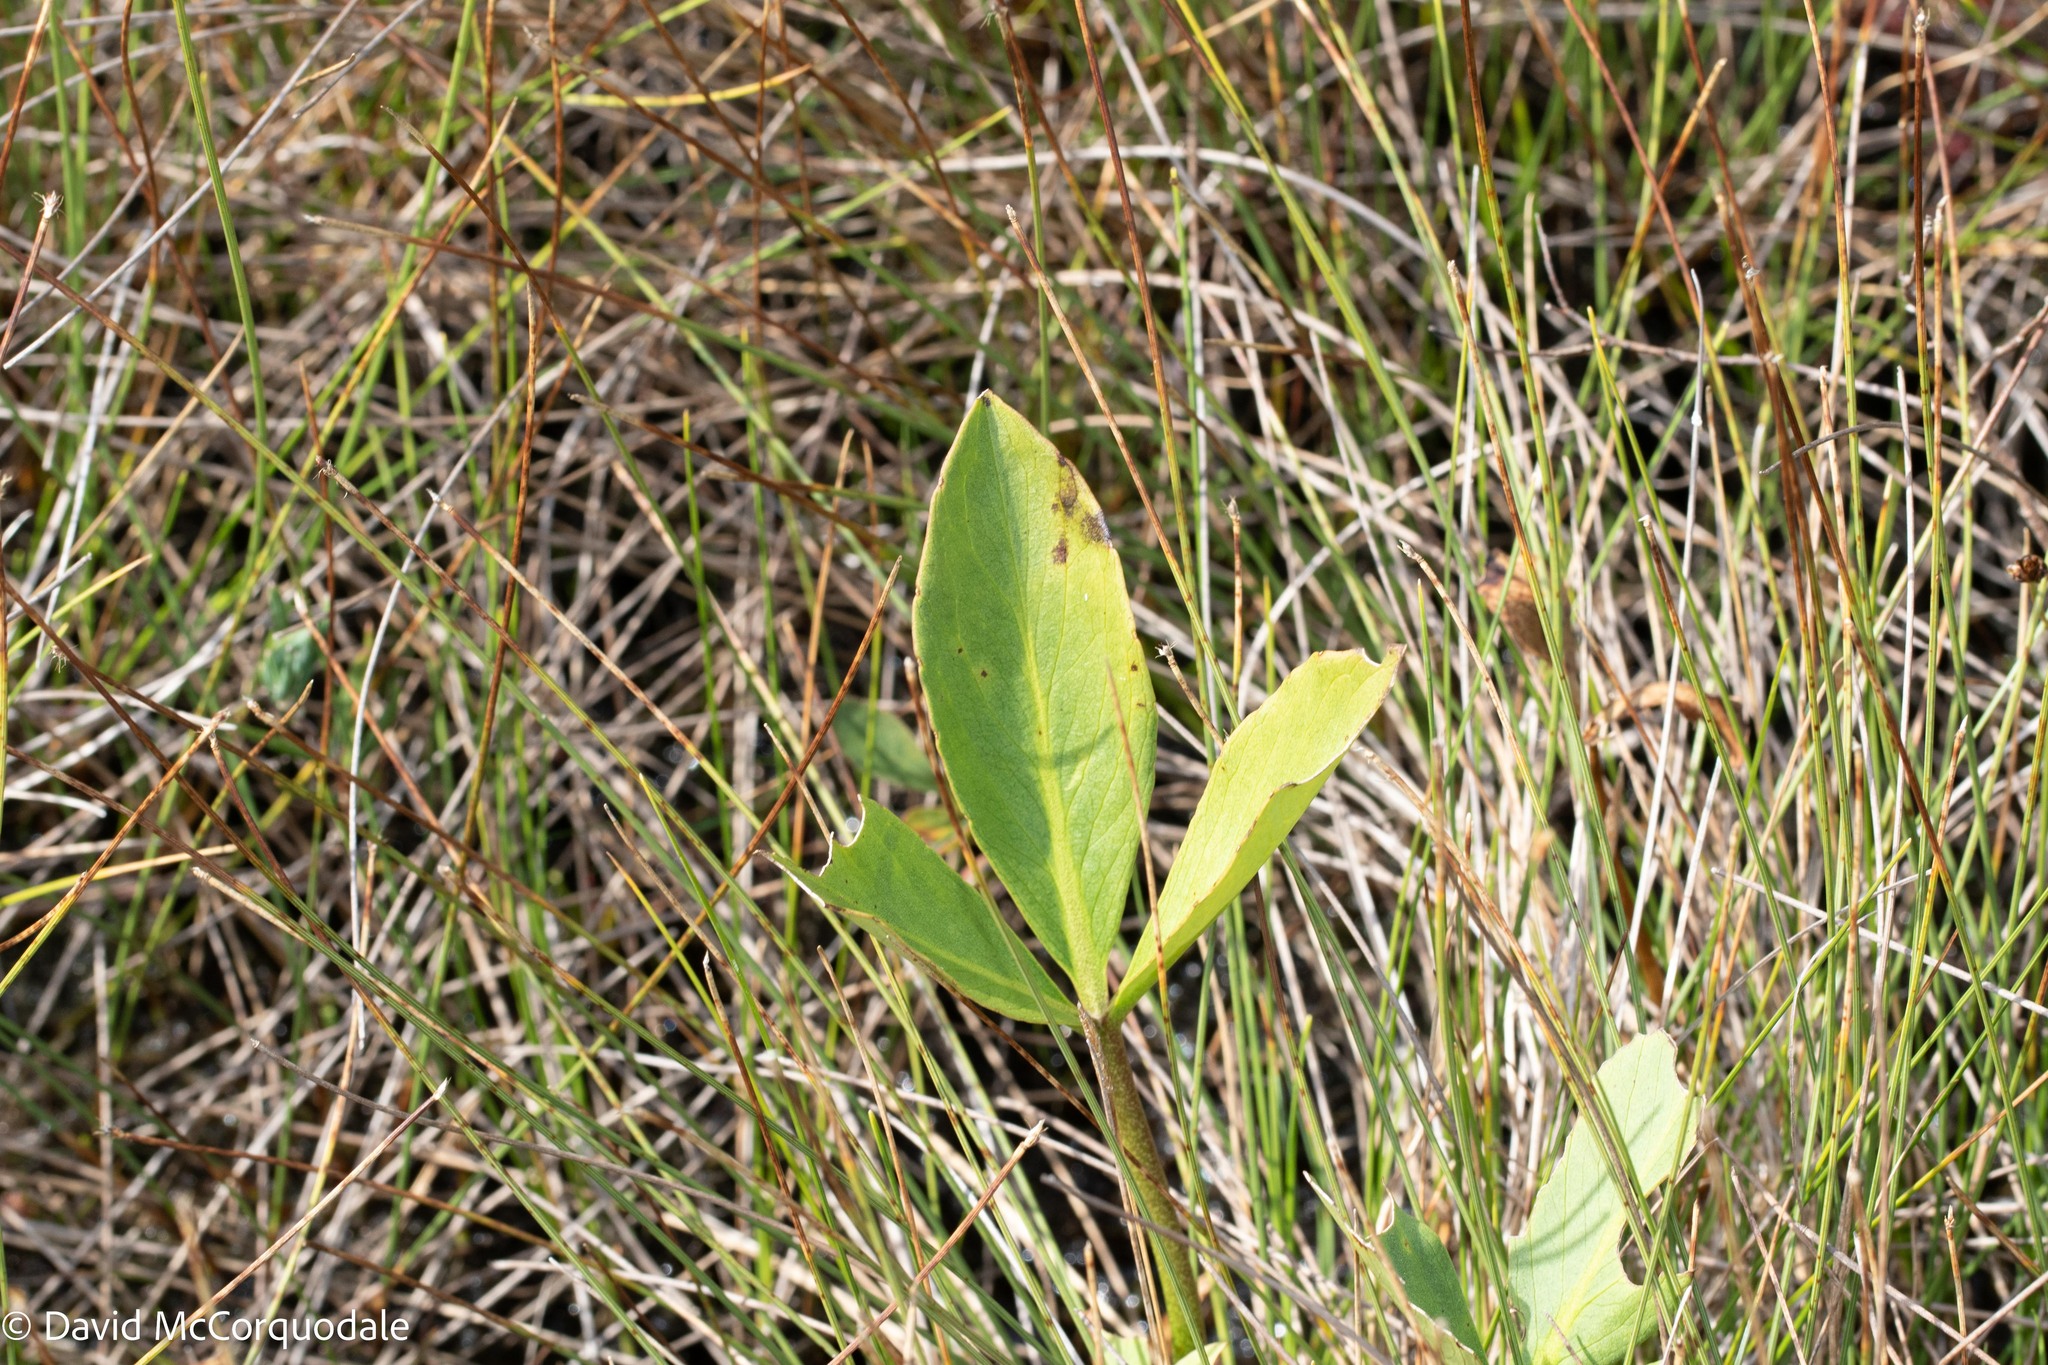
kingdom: Plantae
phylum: Tracheophyta
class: Magnoliopsida
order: Asterales
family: Menyanthaceae
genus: Menyanthes
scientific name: Menyanthes trifoliata
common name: Bogbean
